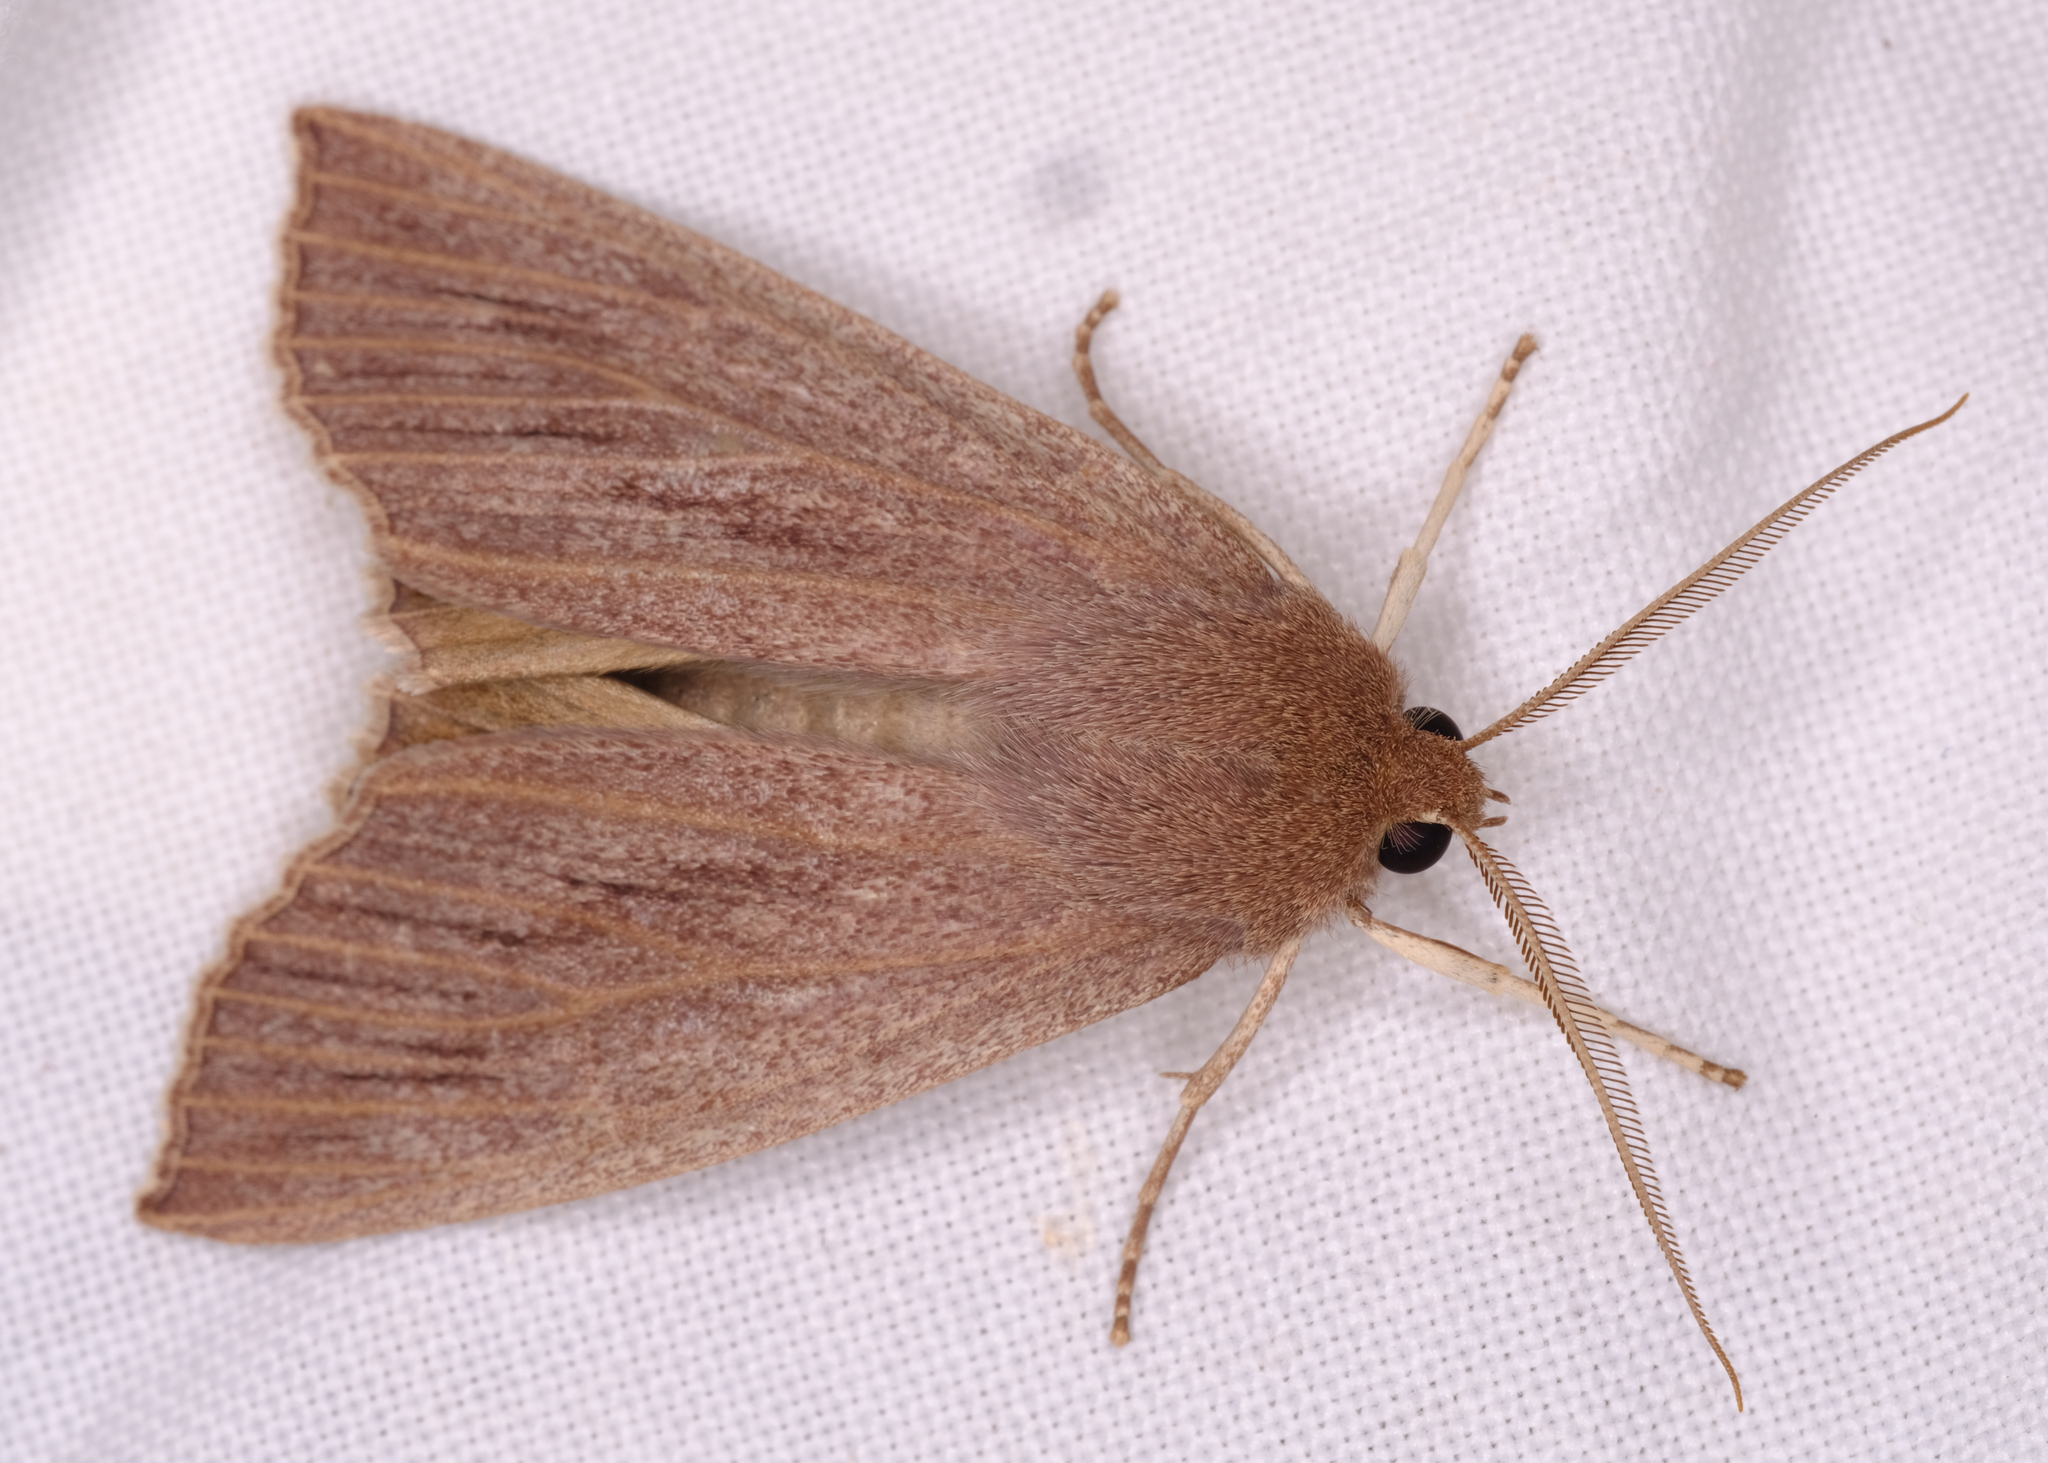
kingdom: Animalia
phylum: Arthropoda
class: Insecta
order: Lepidoptera
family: Geometridae
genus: Palleopa
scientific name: Palleopa innotata
